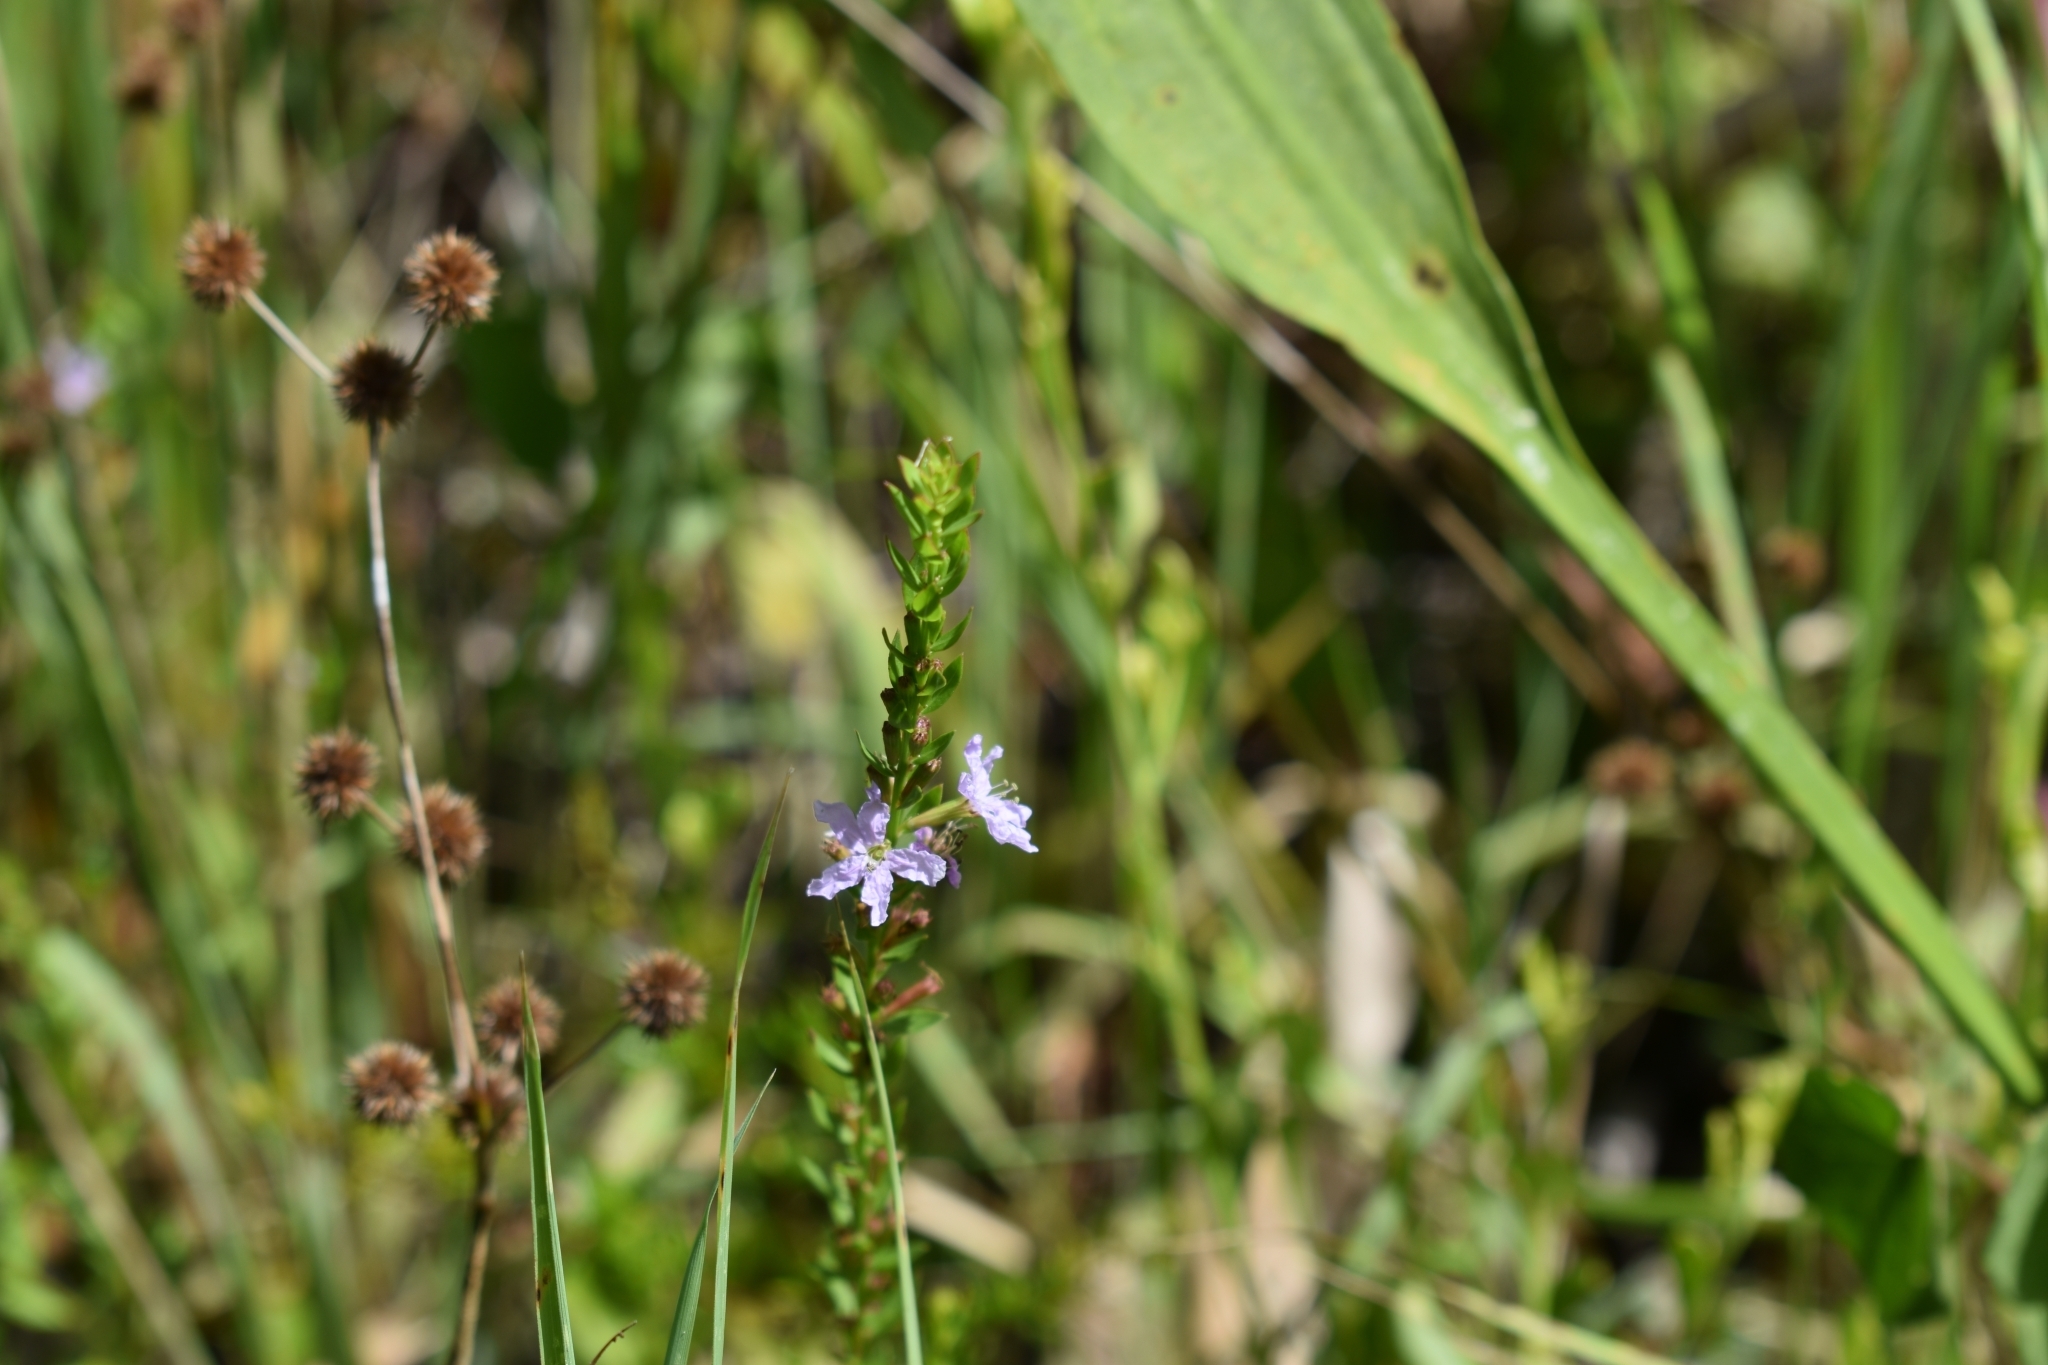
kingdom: Plantae
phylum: Tracheophyta
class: Magnoliopsida
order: Myrtales
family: Lythraceae
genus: Lythrum
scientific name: Lythrum alatum
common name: Winged loosestrife
